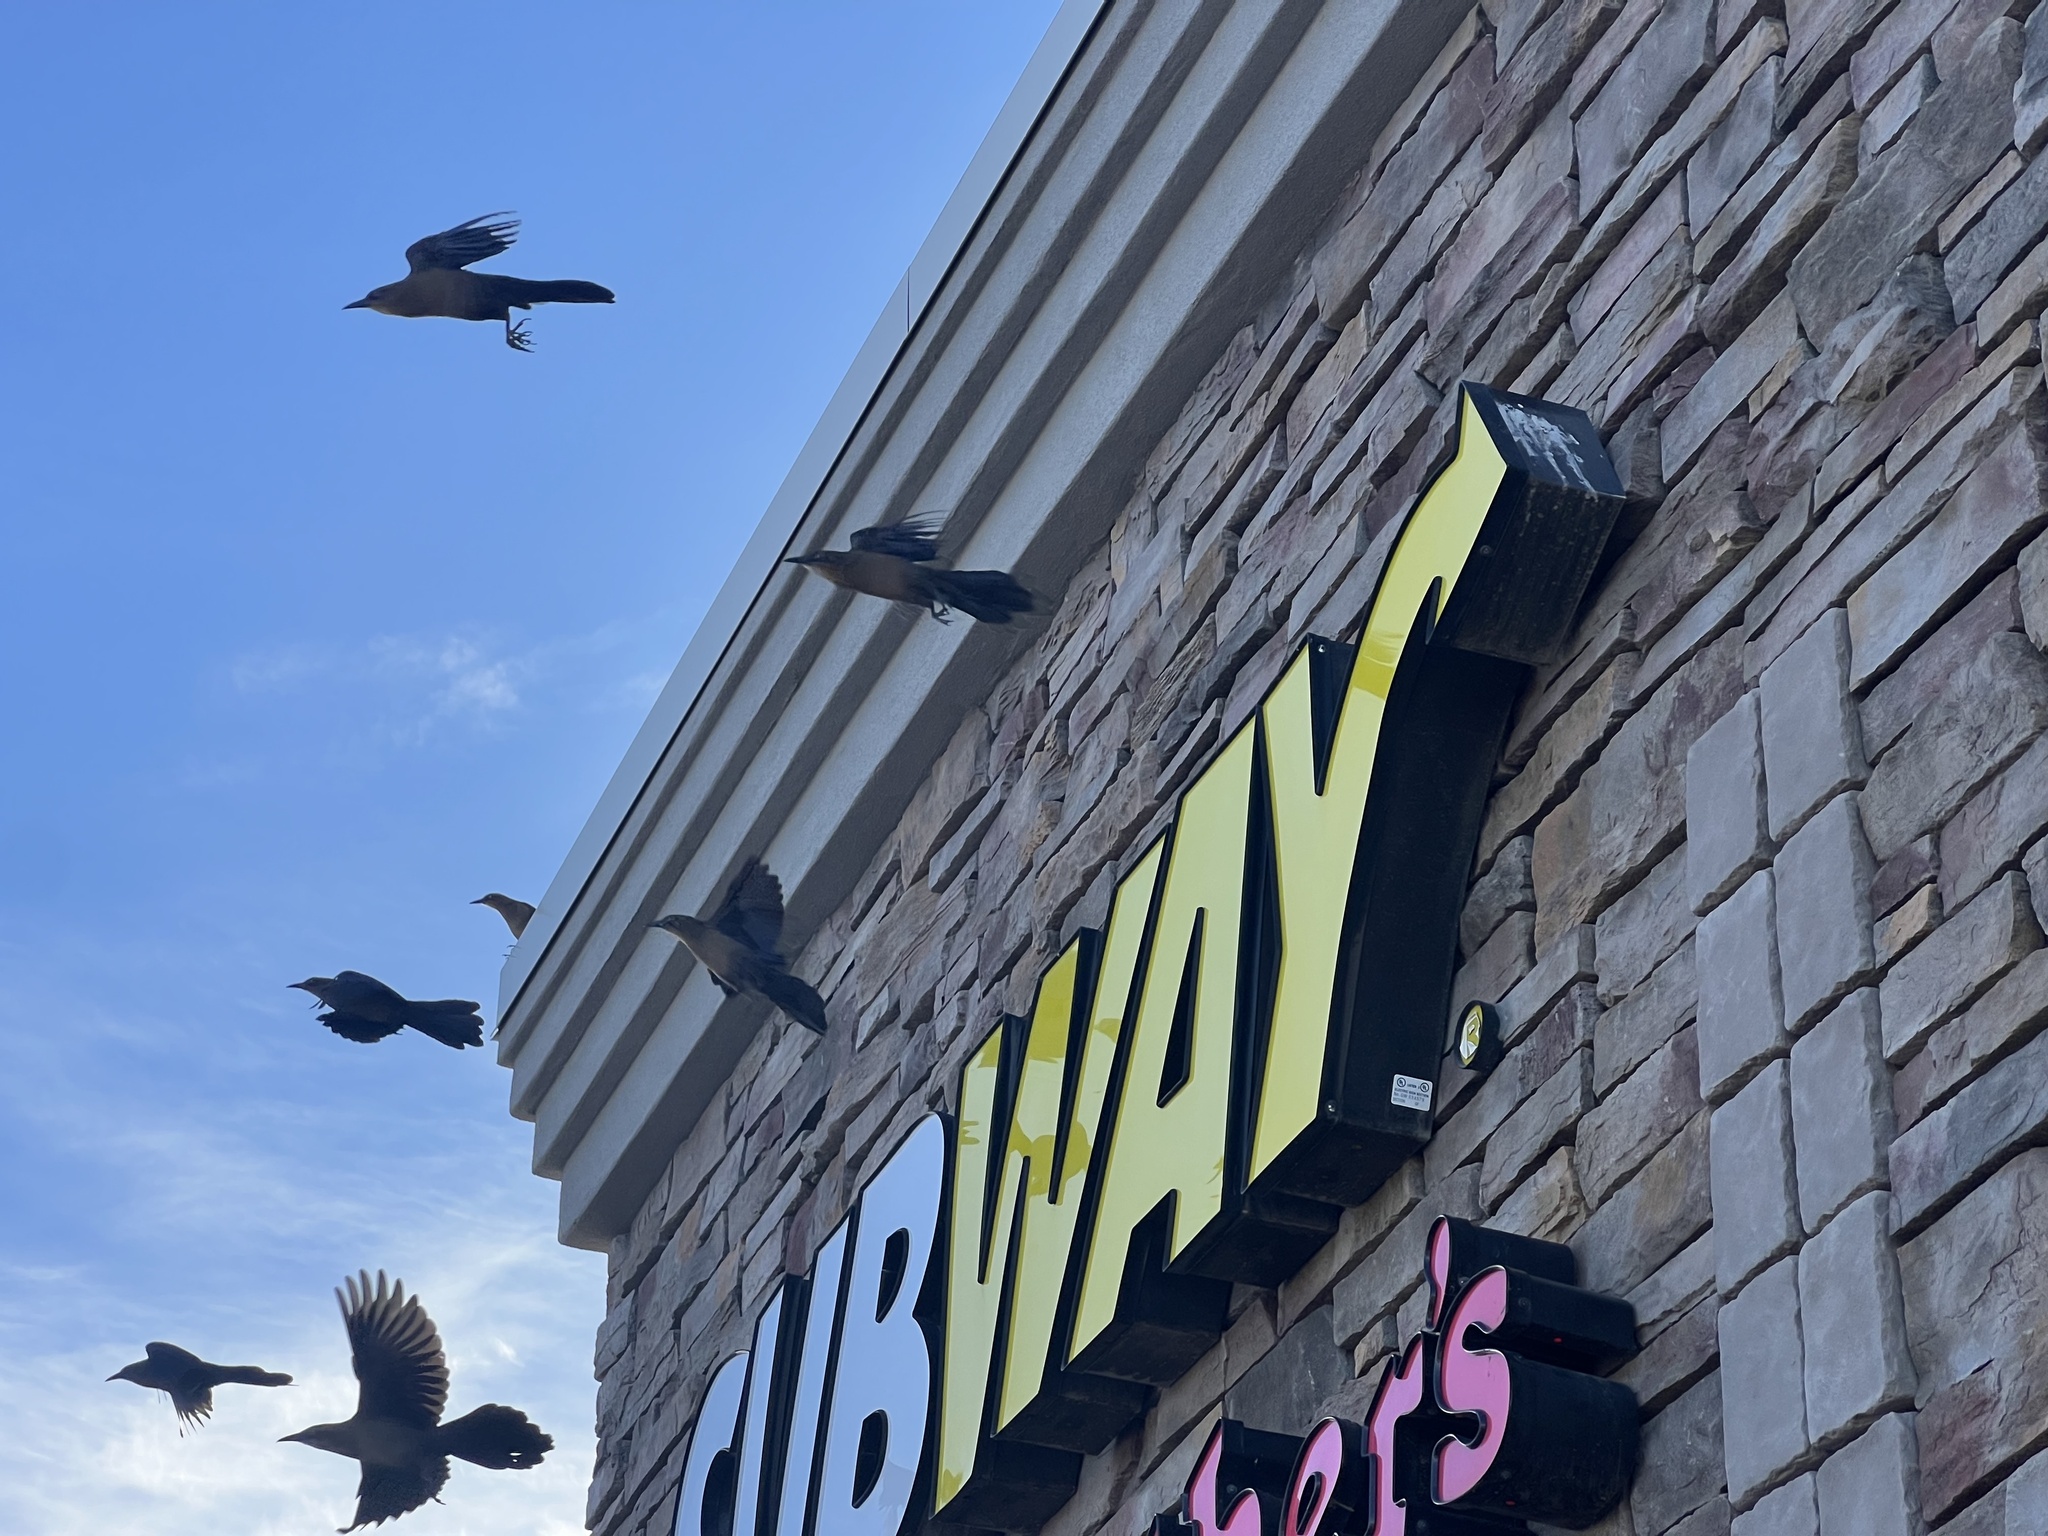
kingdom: Animalia
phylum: Chordata
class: Aves
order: Passeriformes
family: Icteridae
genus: Quiscalus
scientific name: Quiscalus mexicanus
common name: Great-tailed grackle
